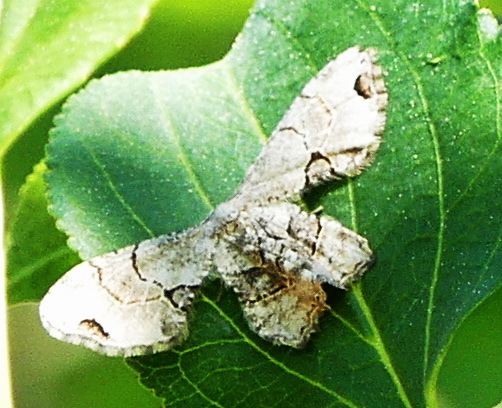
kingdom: Animalia
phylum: Arthropoda
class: Insecta
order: Lepidoptera
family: Uraniidae
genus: Epiplema
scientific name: Epiplema Callizzia amorata
